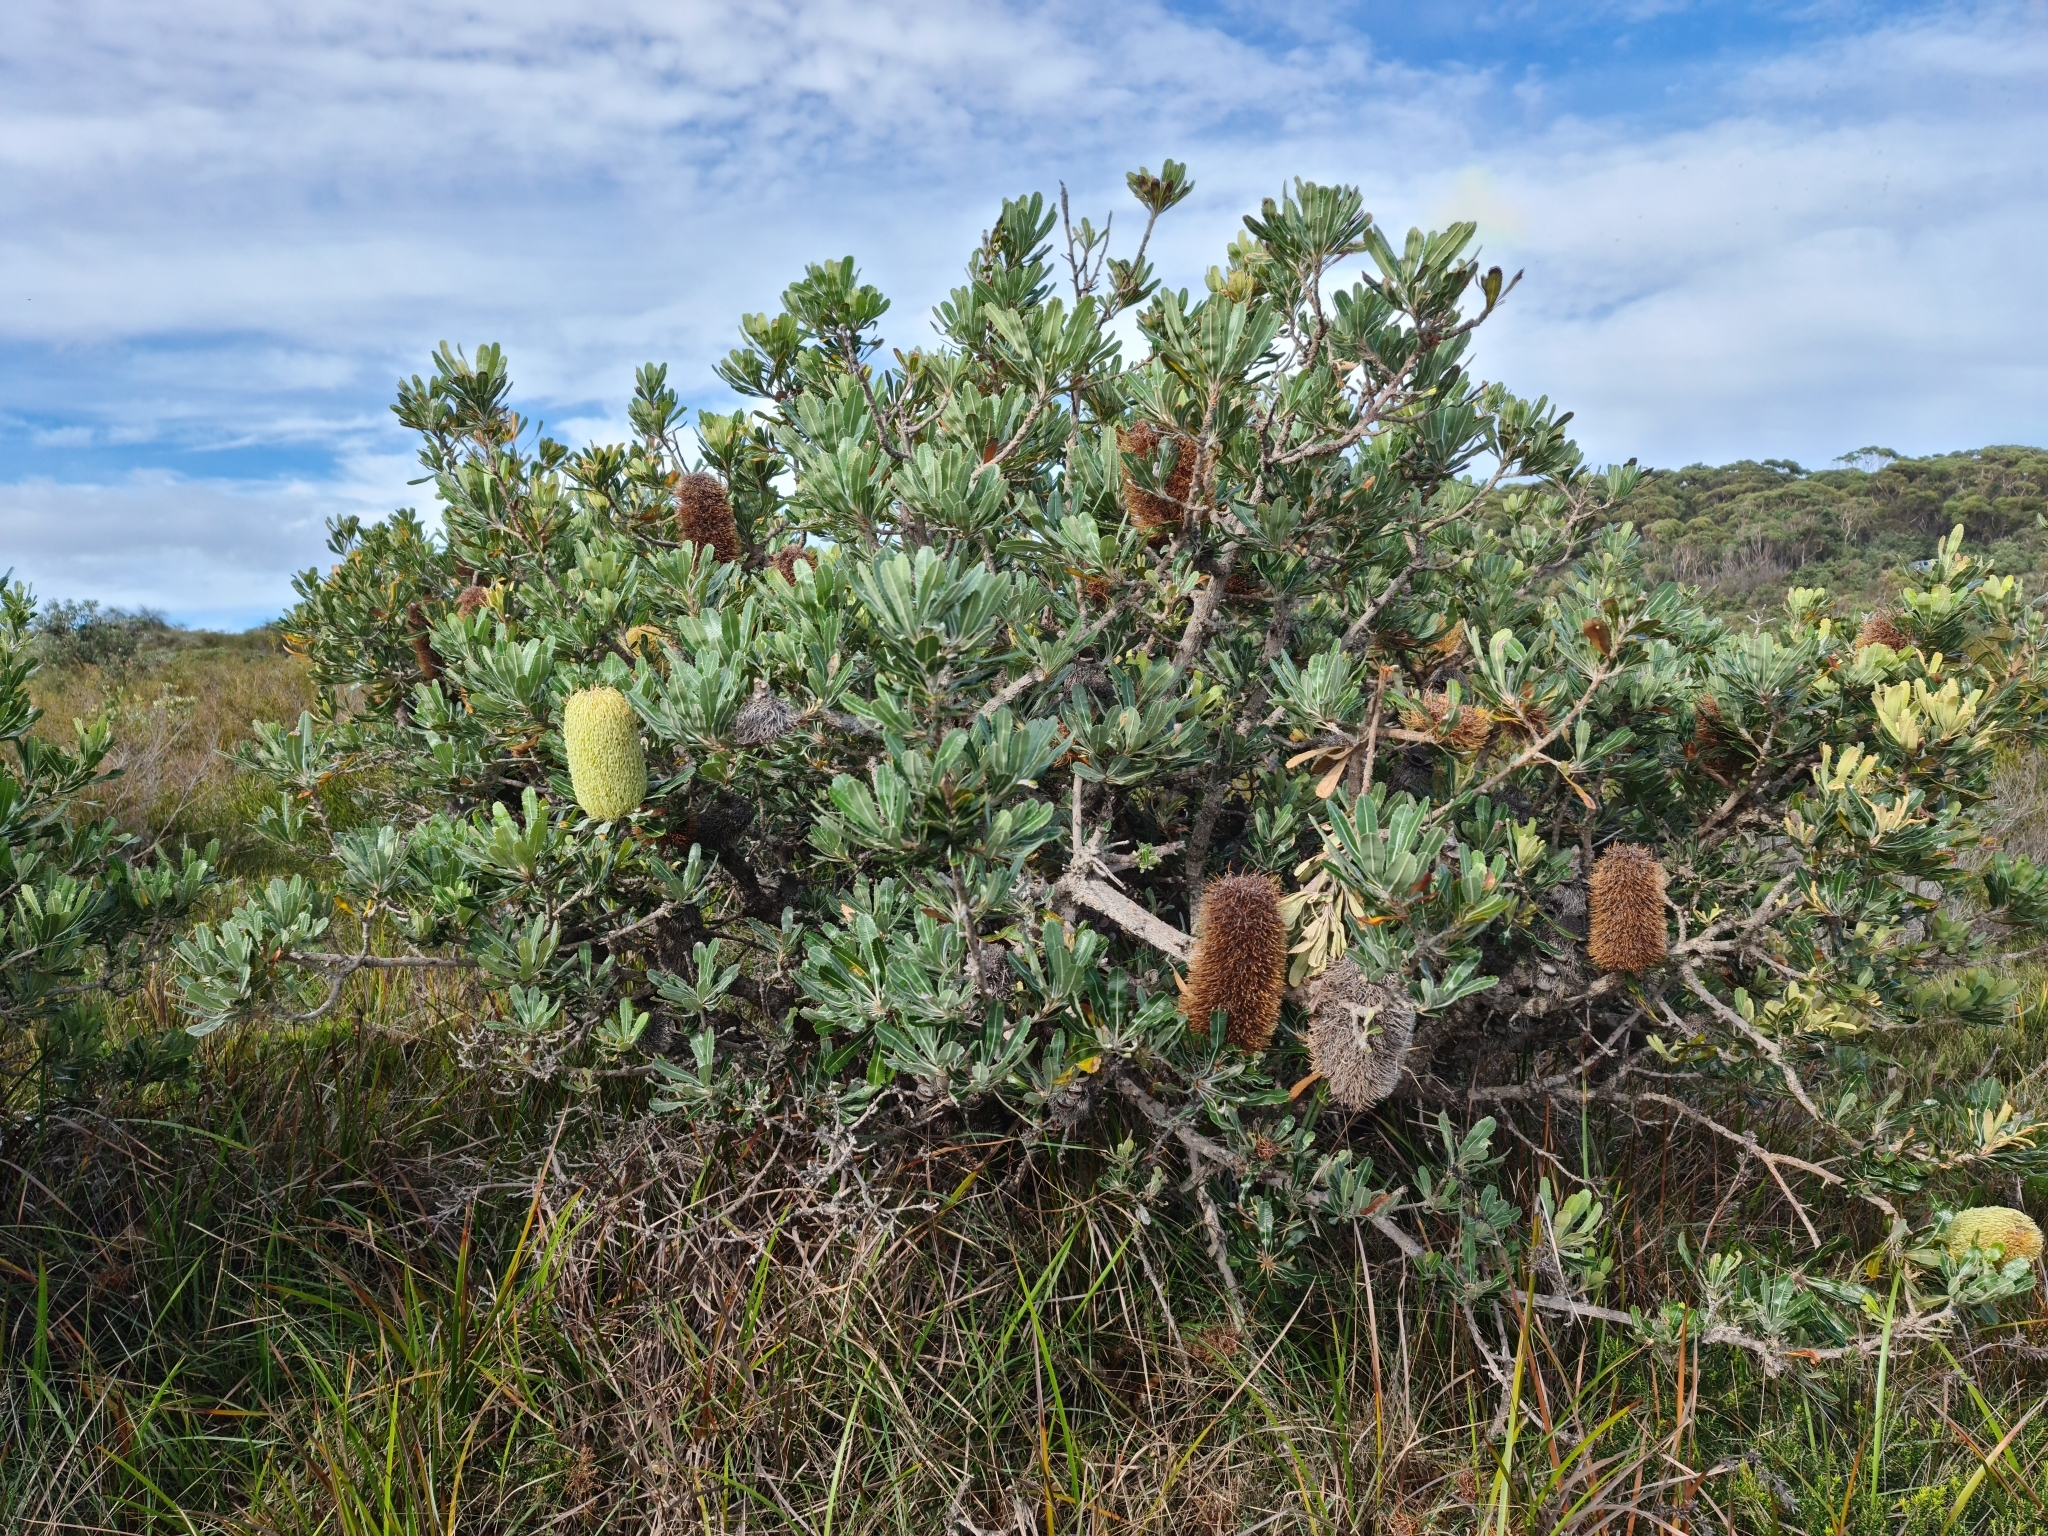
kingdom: Plantae
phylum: Tracheophyta
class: Magnoliopsida
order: Proteales
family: Proteaceae
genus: Banksia
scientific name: Banksia serrata
